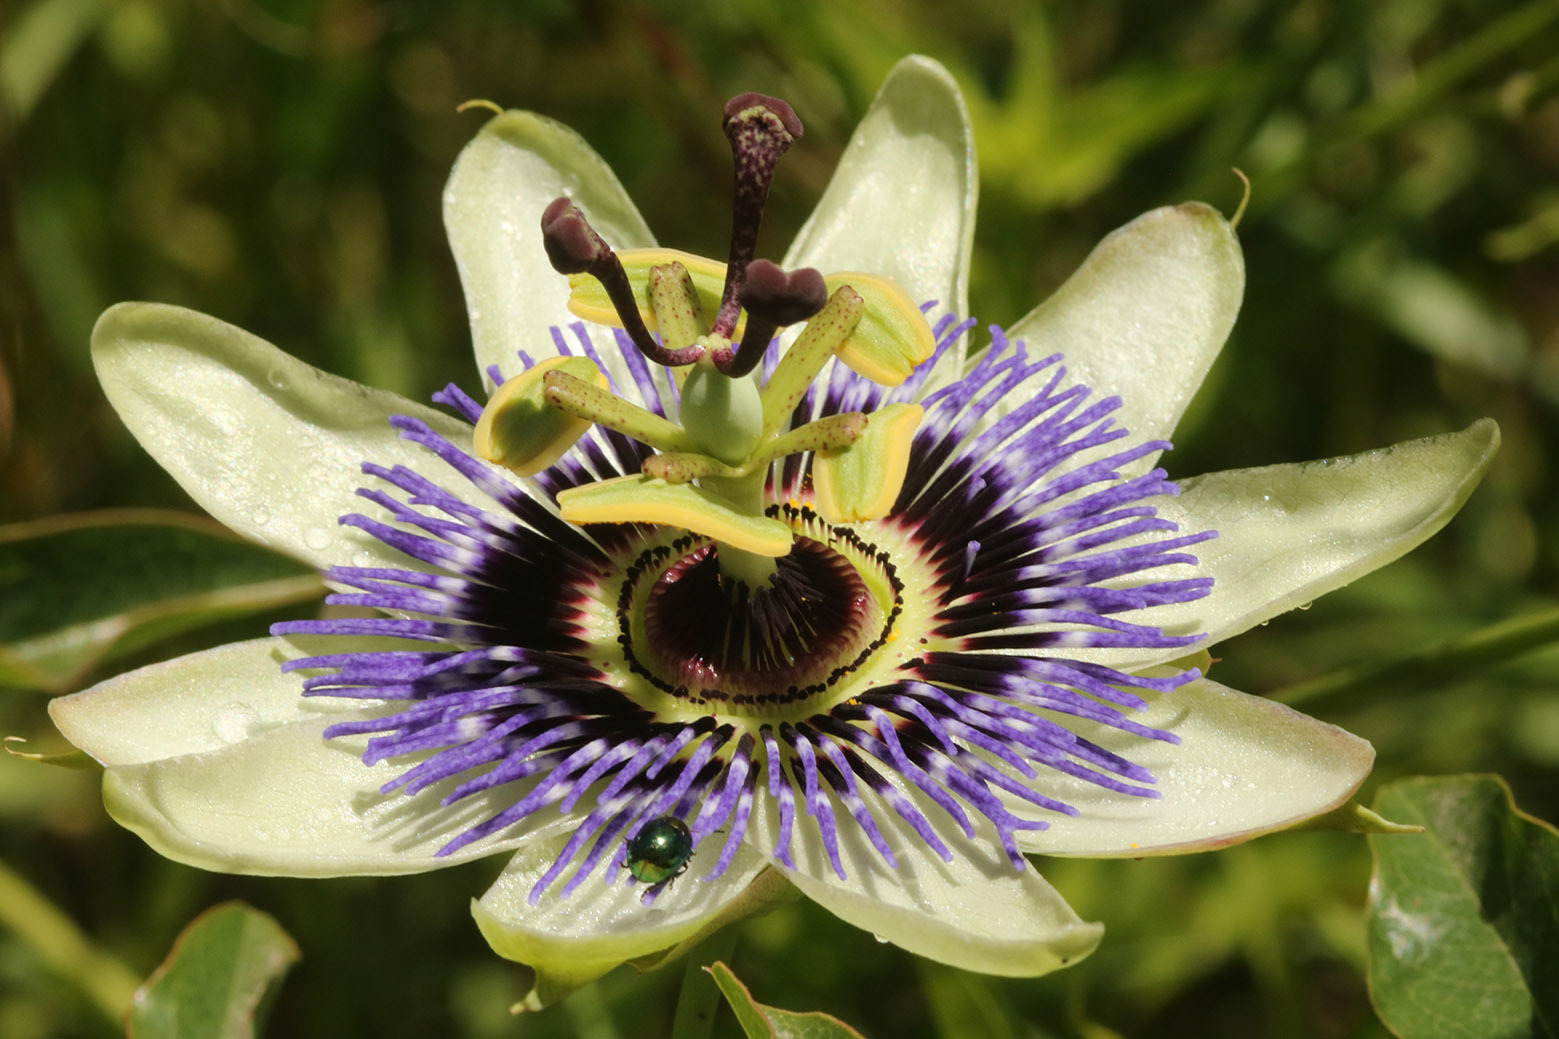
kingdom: Plantae
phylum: Tracheophyta
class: Magnoliopsida
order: Malpighiales
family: Passifloraceae
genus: Passiflora
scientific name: Passiflora caerulea
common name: Blue passionflower
